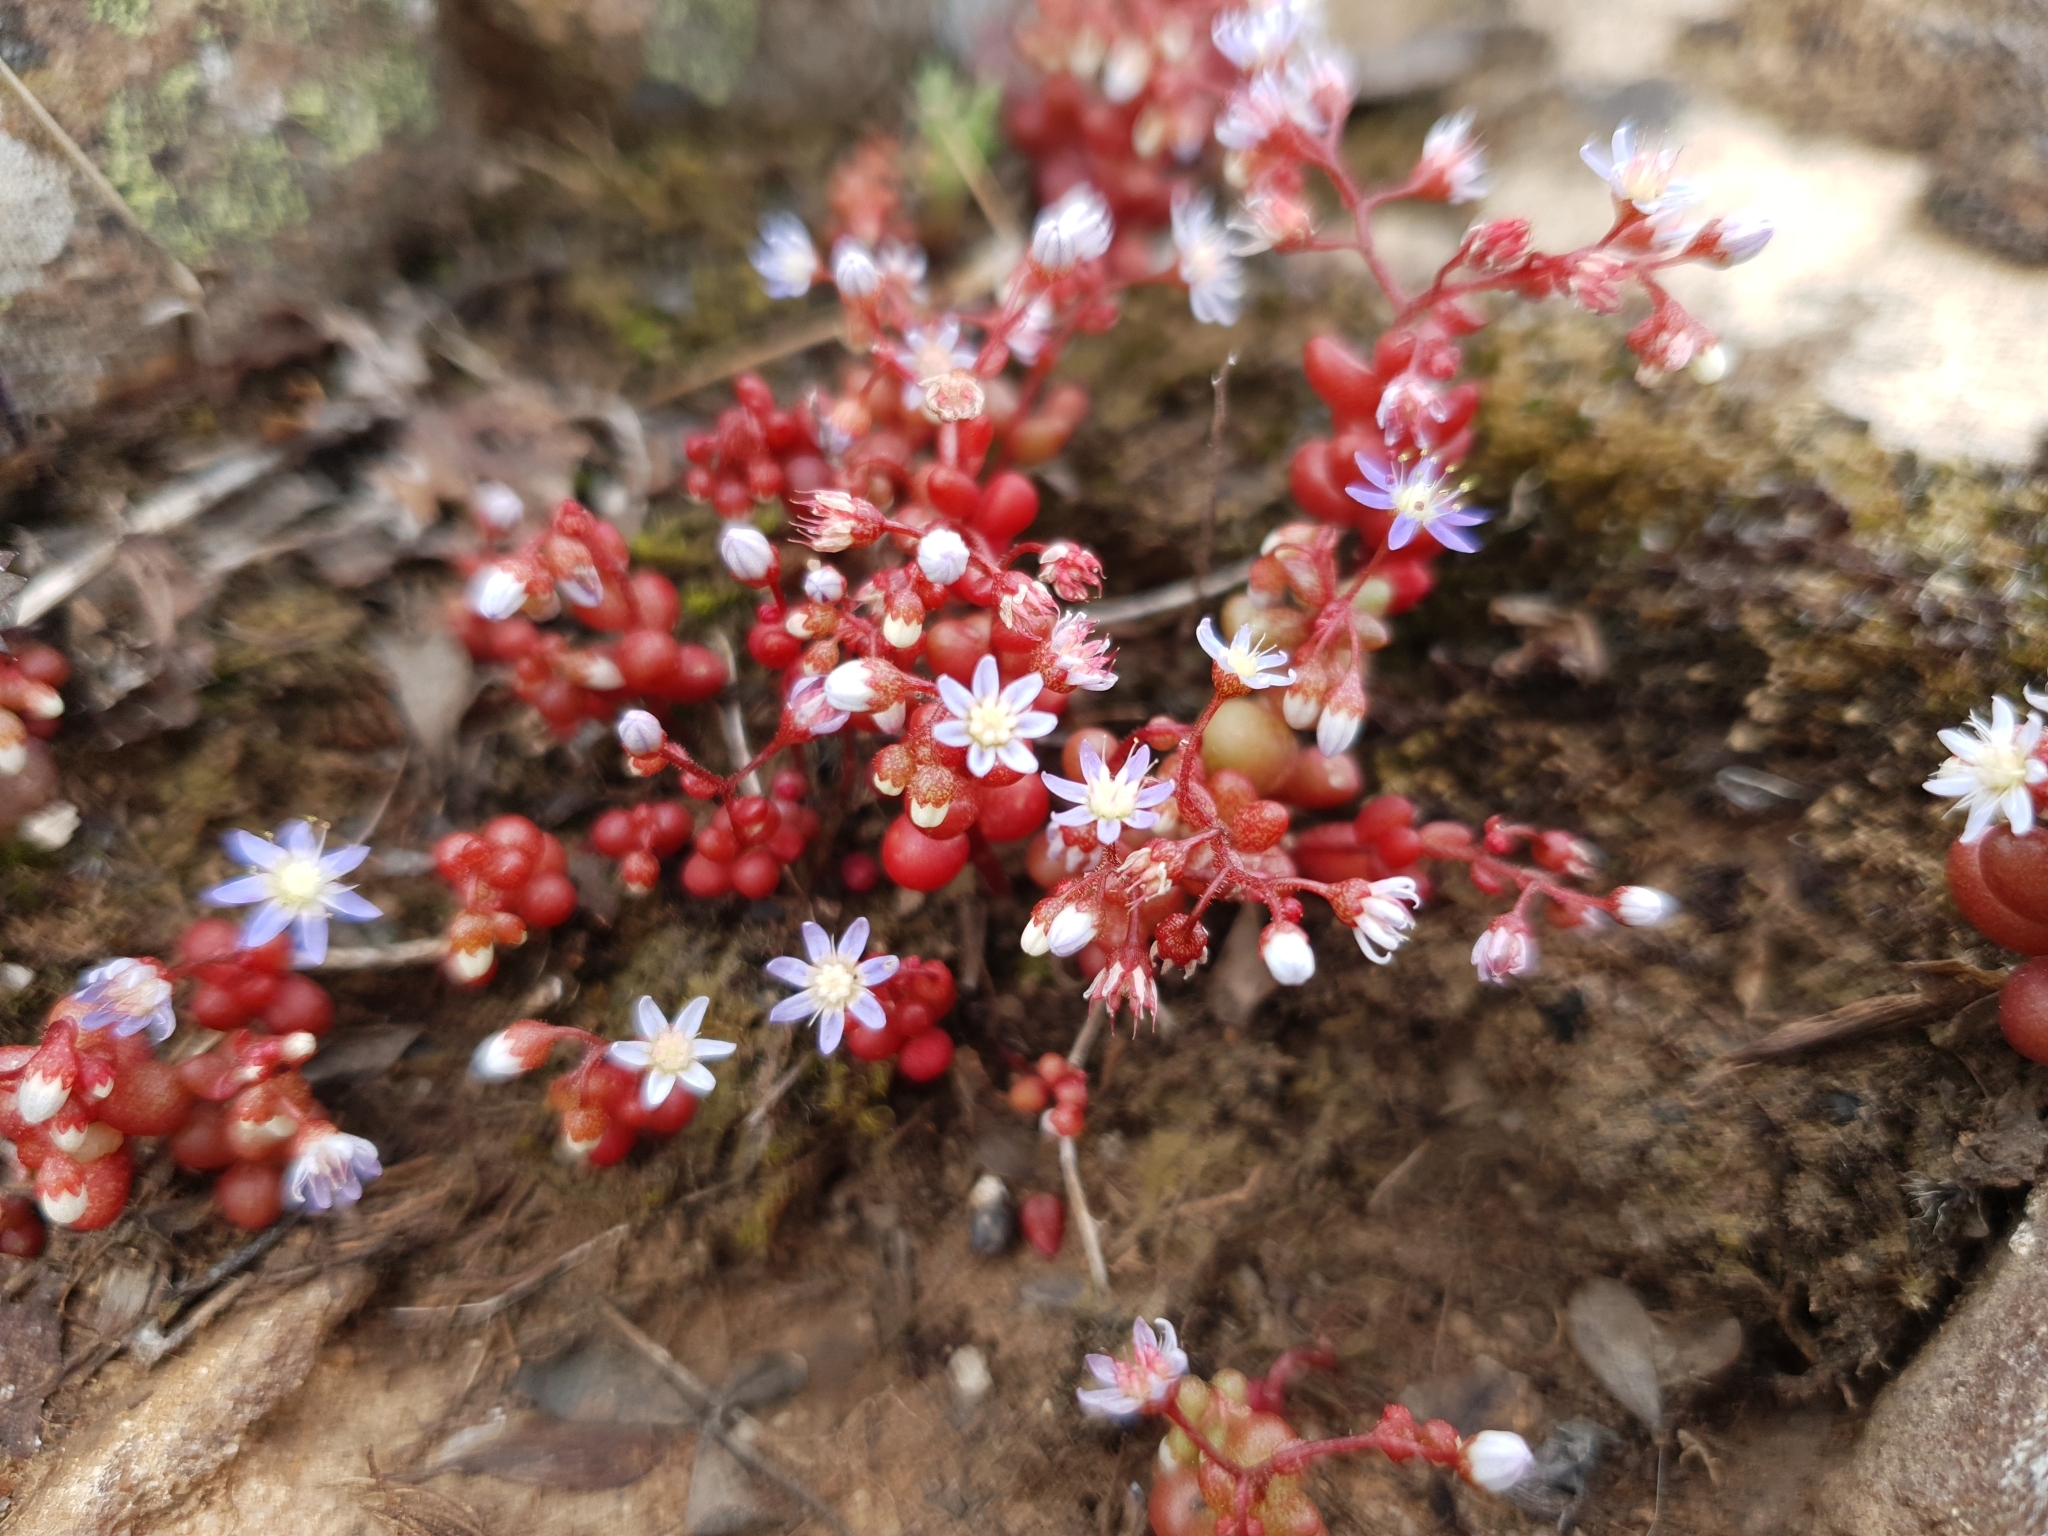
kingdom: Plantae
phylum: Tracheophyta
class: Magnoliopsida
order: Saxifragales
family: Crassulaceae
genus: Sedum
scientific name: Sedum caeruleum
